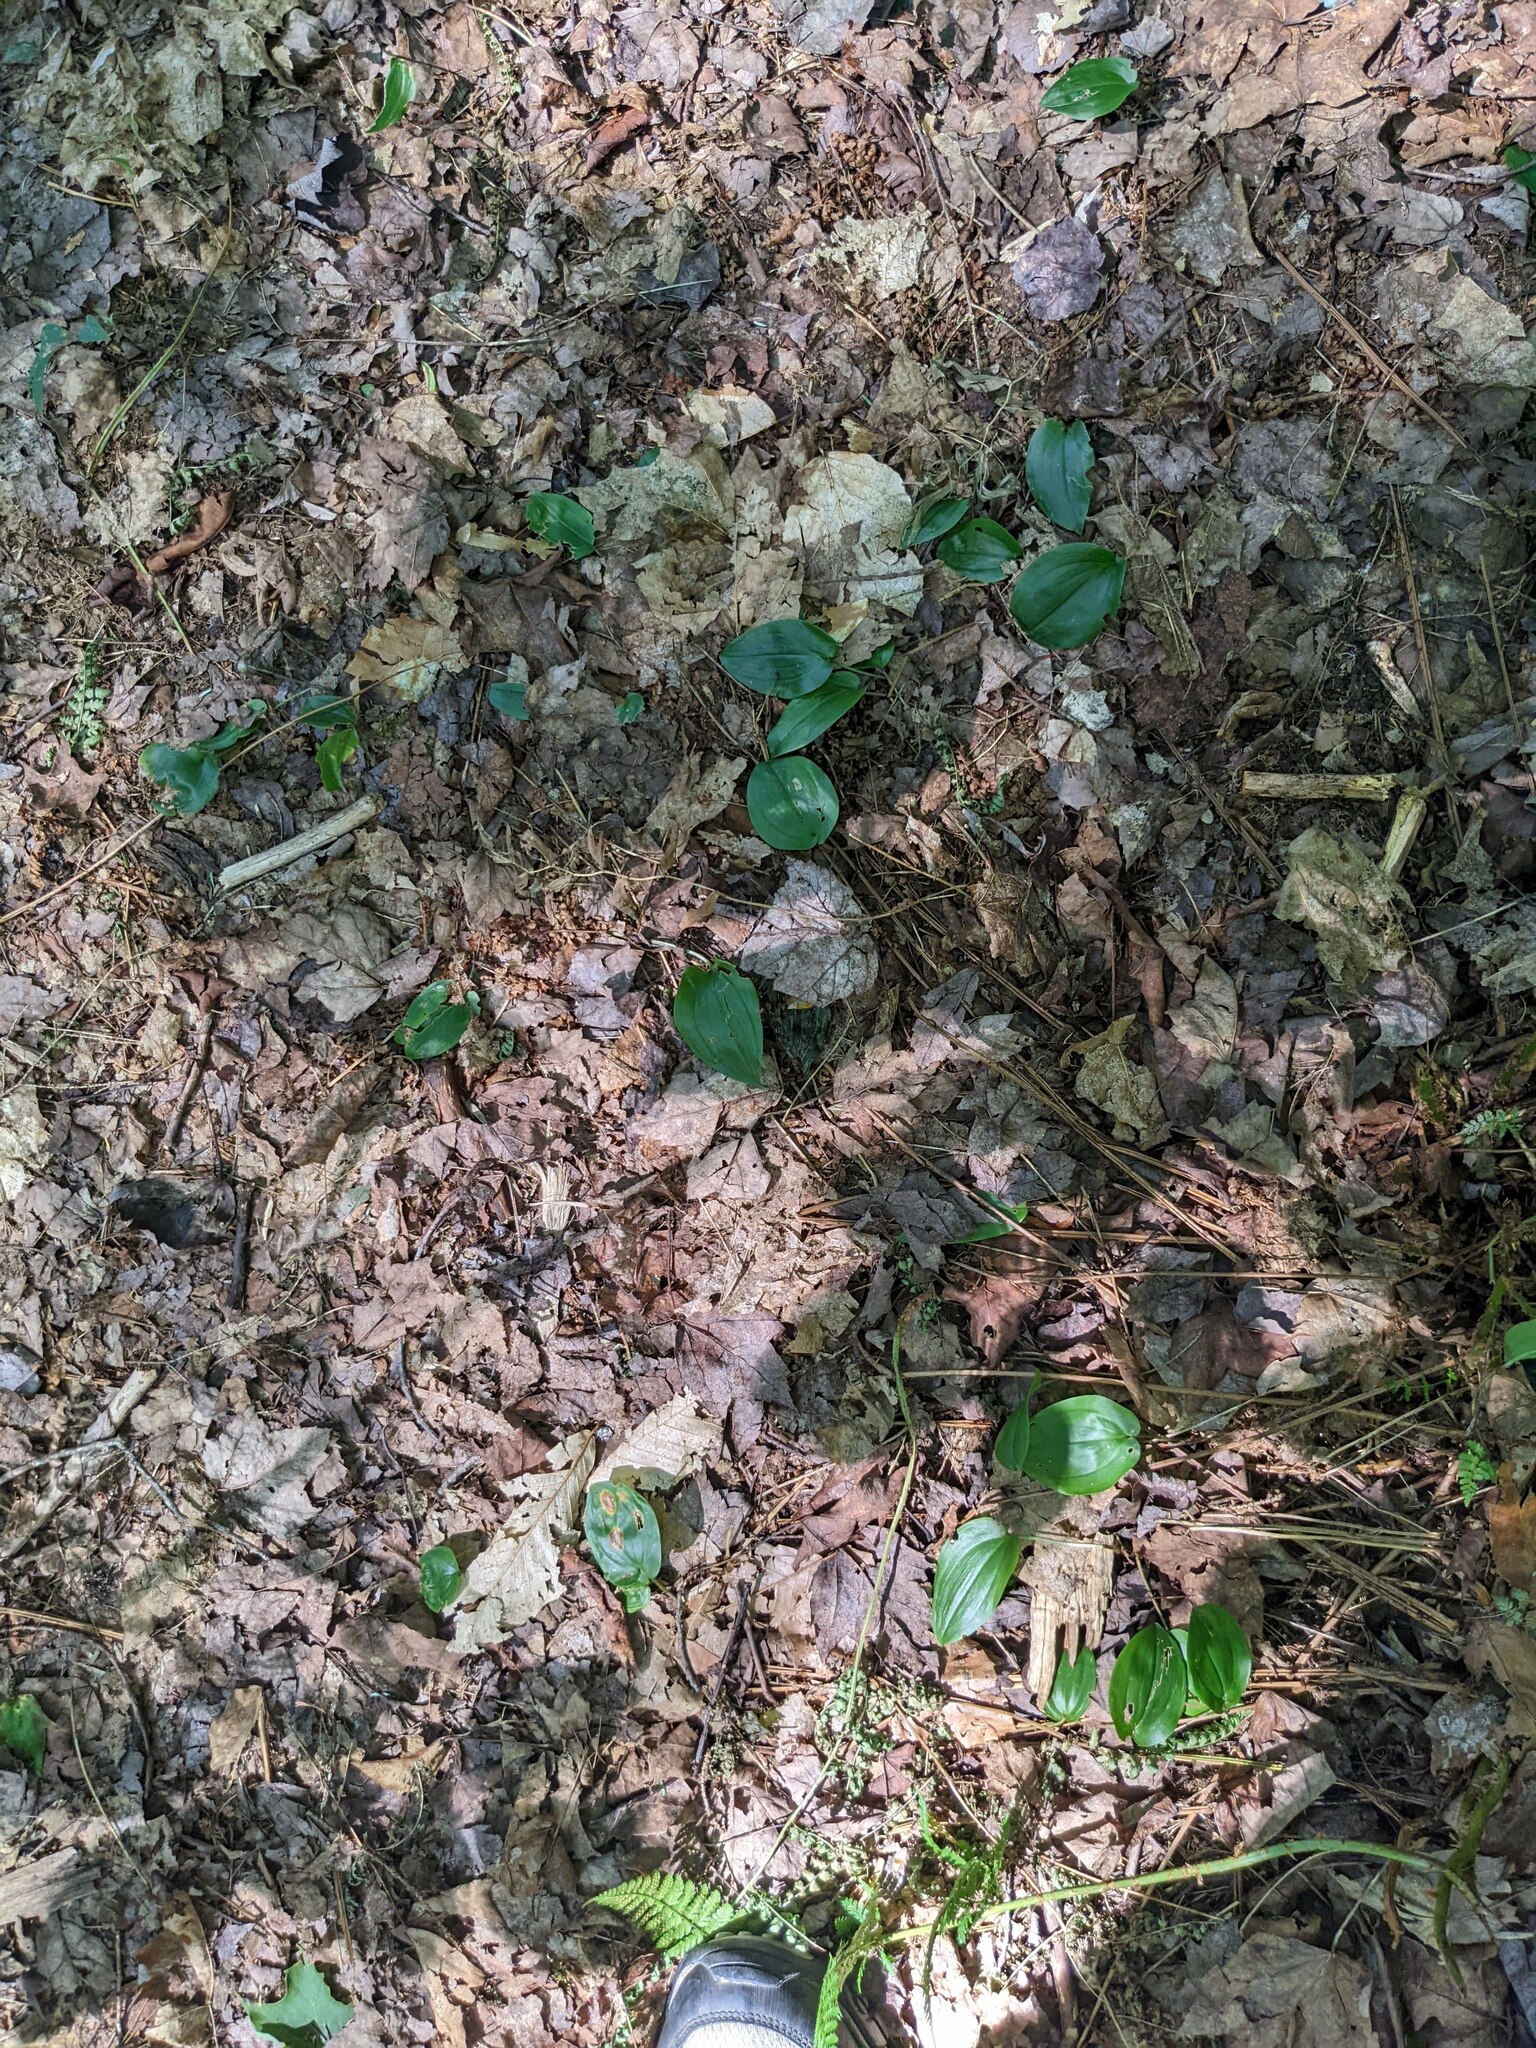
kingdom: Plantae
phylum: Tracheophyta
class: Liliopsida
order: Asparagales
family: Asparagaceae
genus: Maianthemum
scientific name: Maianthemum canadense
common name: False lily-of-the-valley
